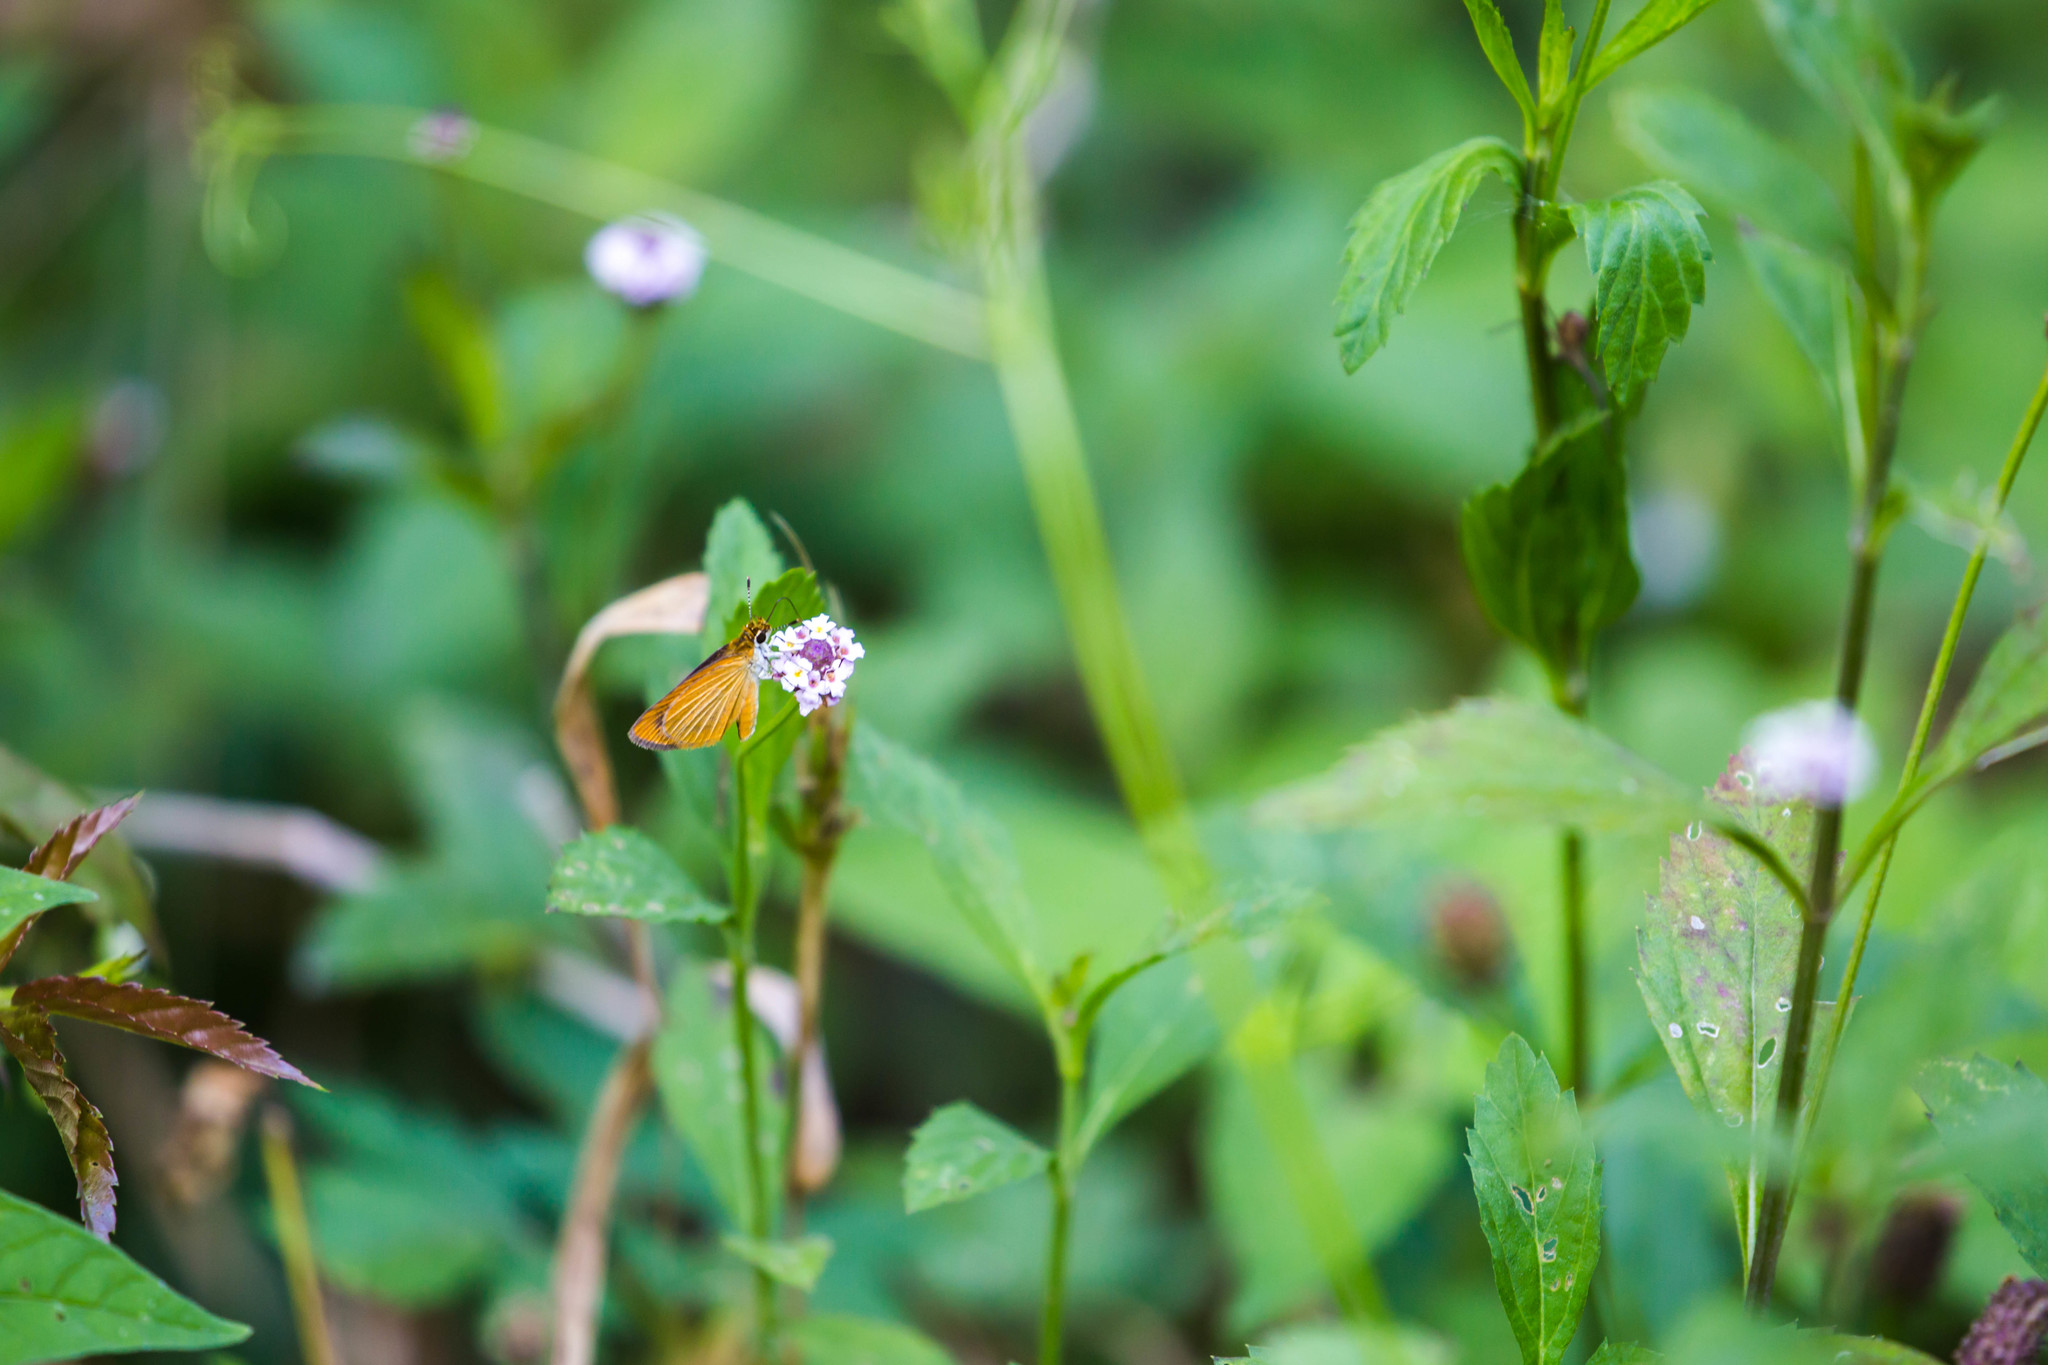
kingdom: Animalia
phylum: Arthropoda
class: Insecta
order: Lepidoptera
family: Hesperiidae
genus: Ancyloxypha
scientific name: Ancyloxypha numitor
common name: Least skipper
